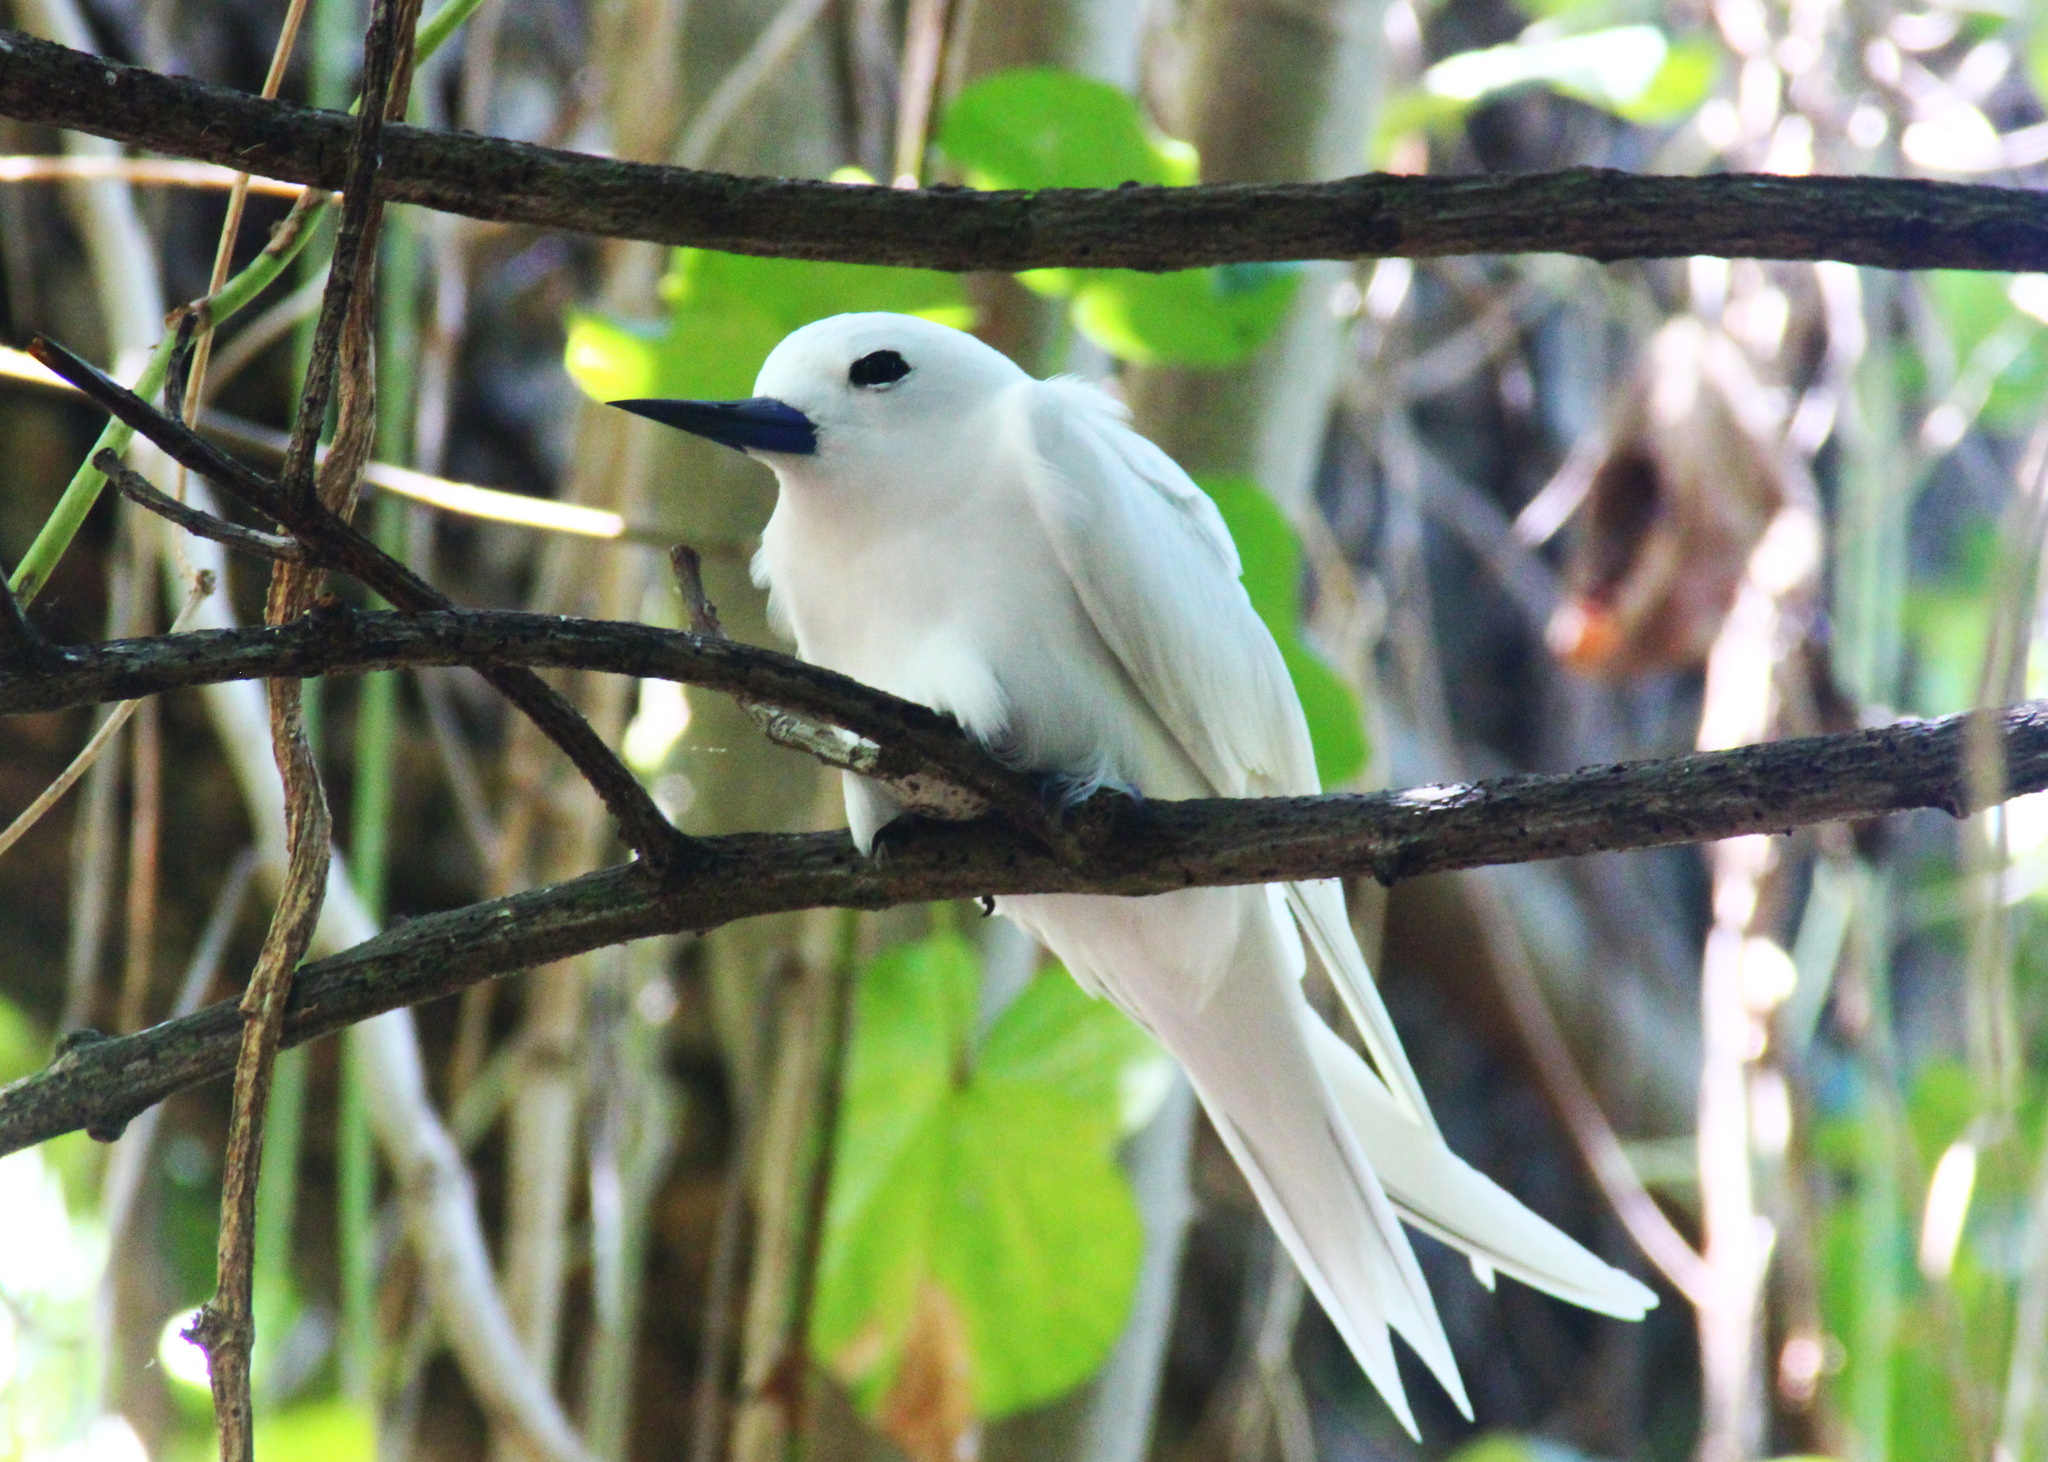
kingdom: Animalia
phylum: Chordata
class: Aves
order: Charadriiformes
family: Laridae
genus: Gygis
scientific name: Gygis alba
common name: White tern
